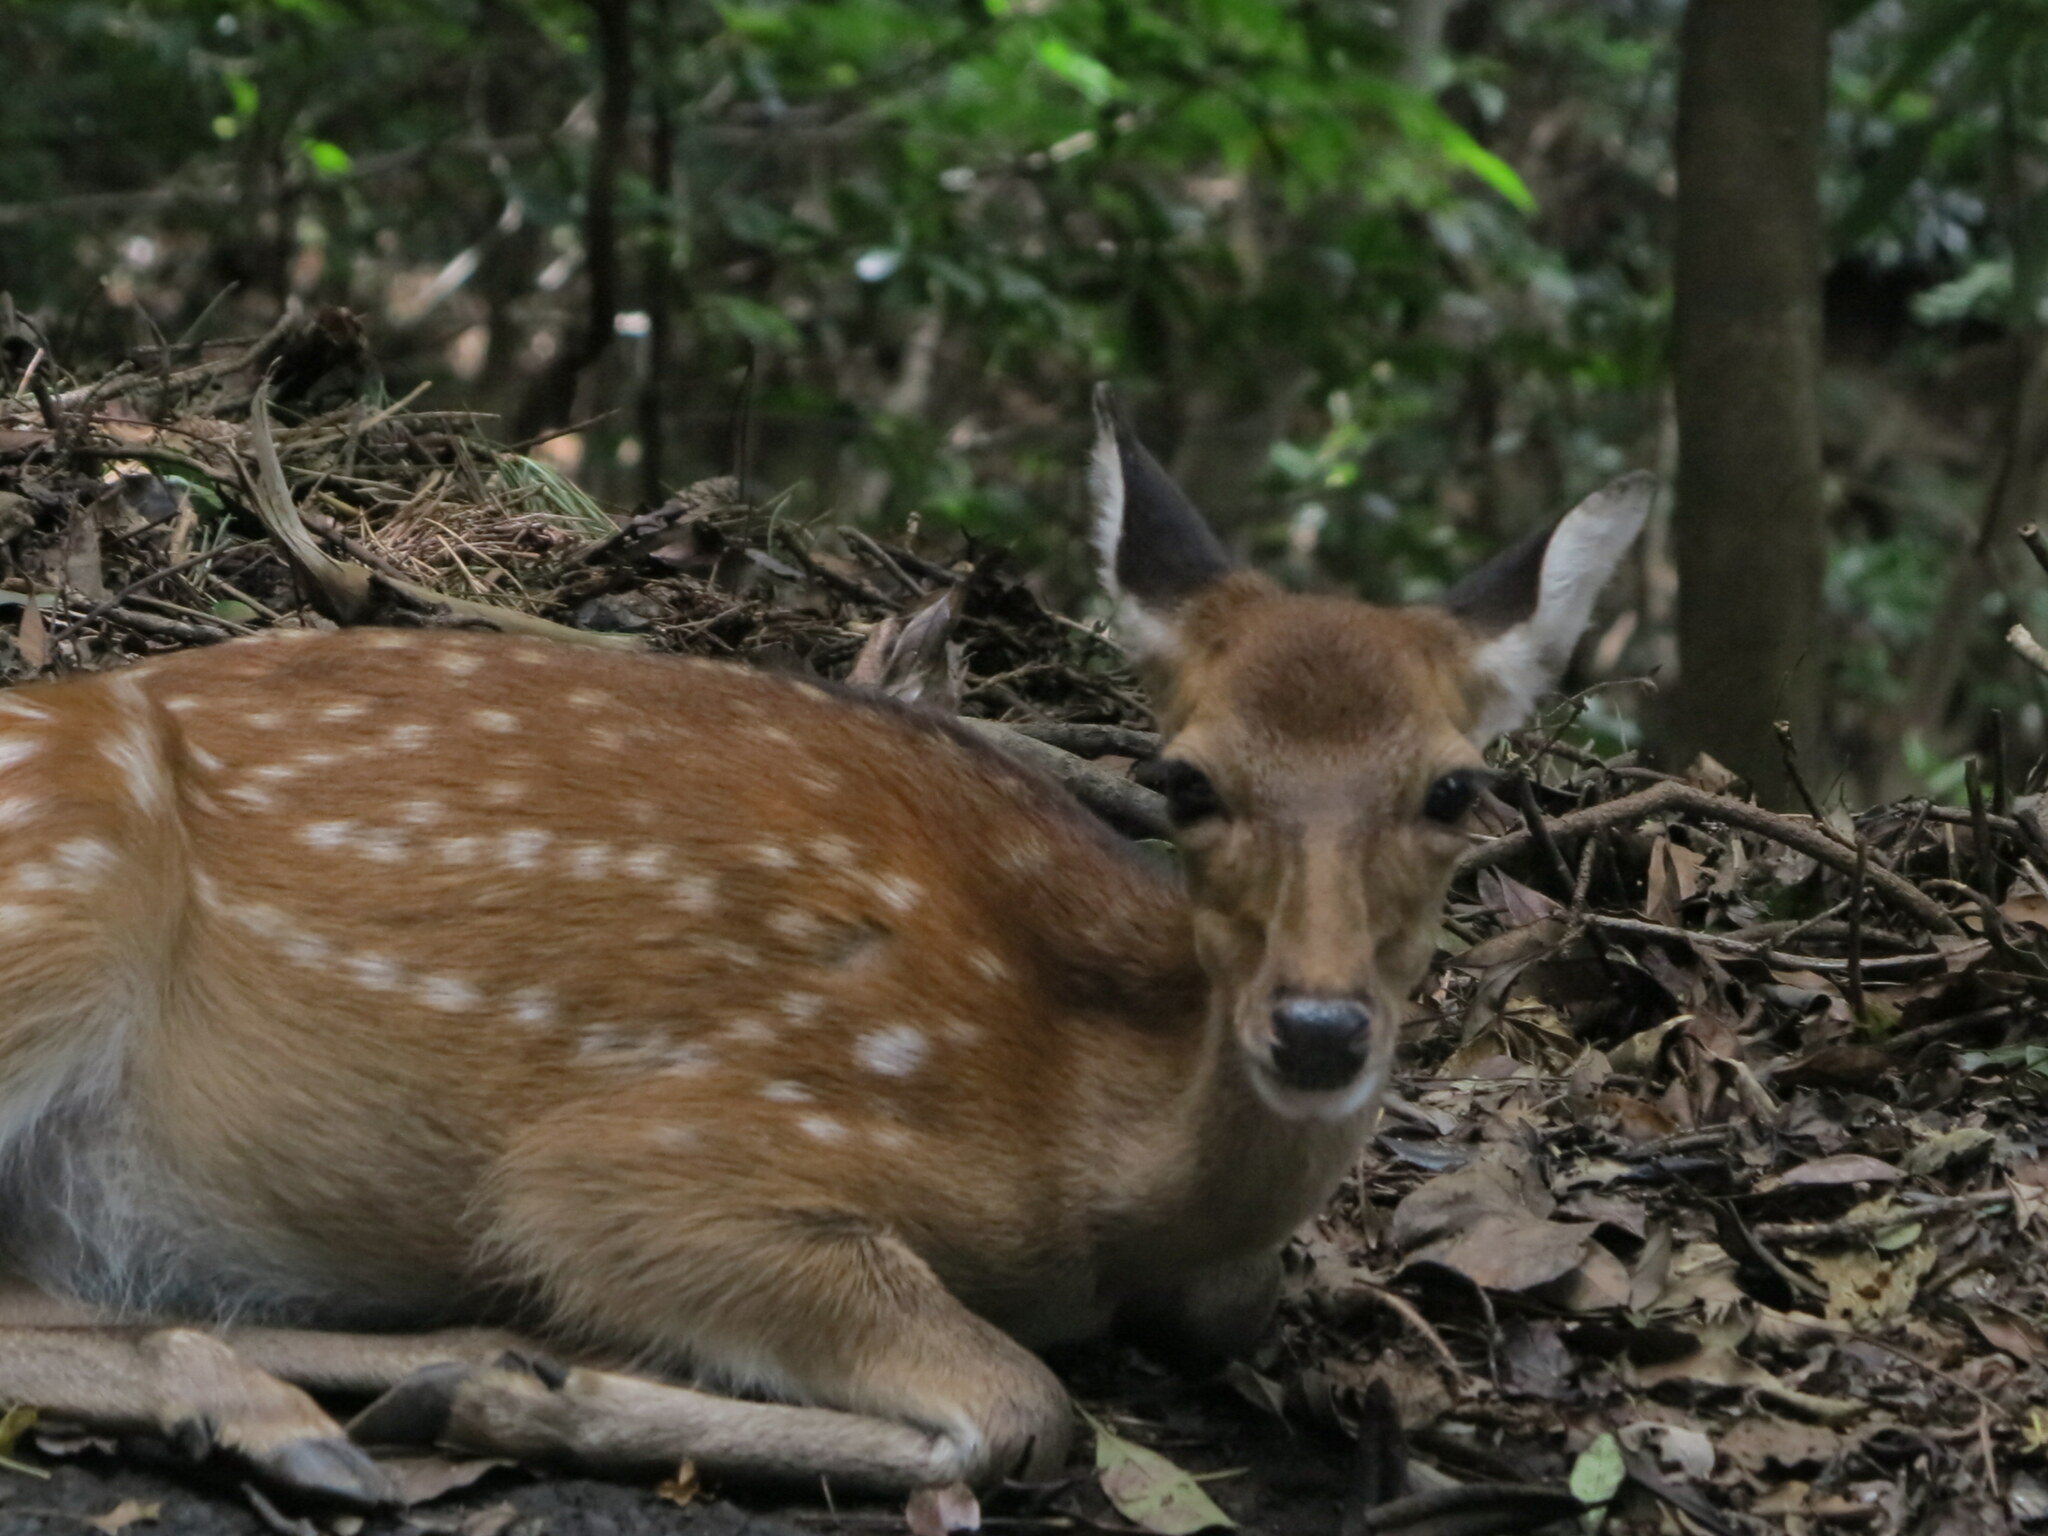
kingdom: Animalia
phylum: Chordata
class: Mammalia
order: Artiodactyla
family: Cervidae
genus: Cervus
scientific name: Cervus nippon
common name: Sika deer
